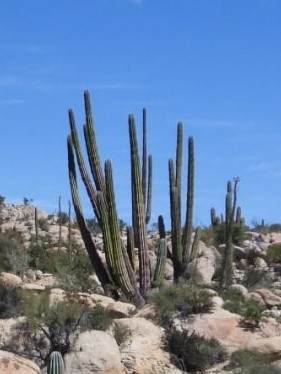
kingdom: Plantae
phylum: Tracheophyta
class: Magnoliopsida
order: Caryophyllales
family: Cactaceae
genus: Stenocereus
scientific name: Stenocereus thurberi
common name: Organ pipe cactus
